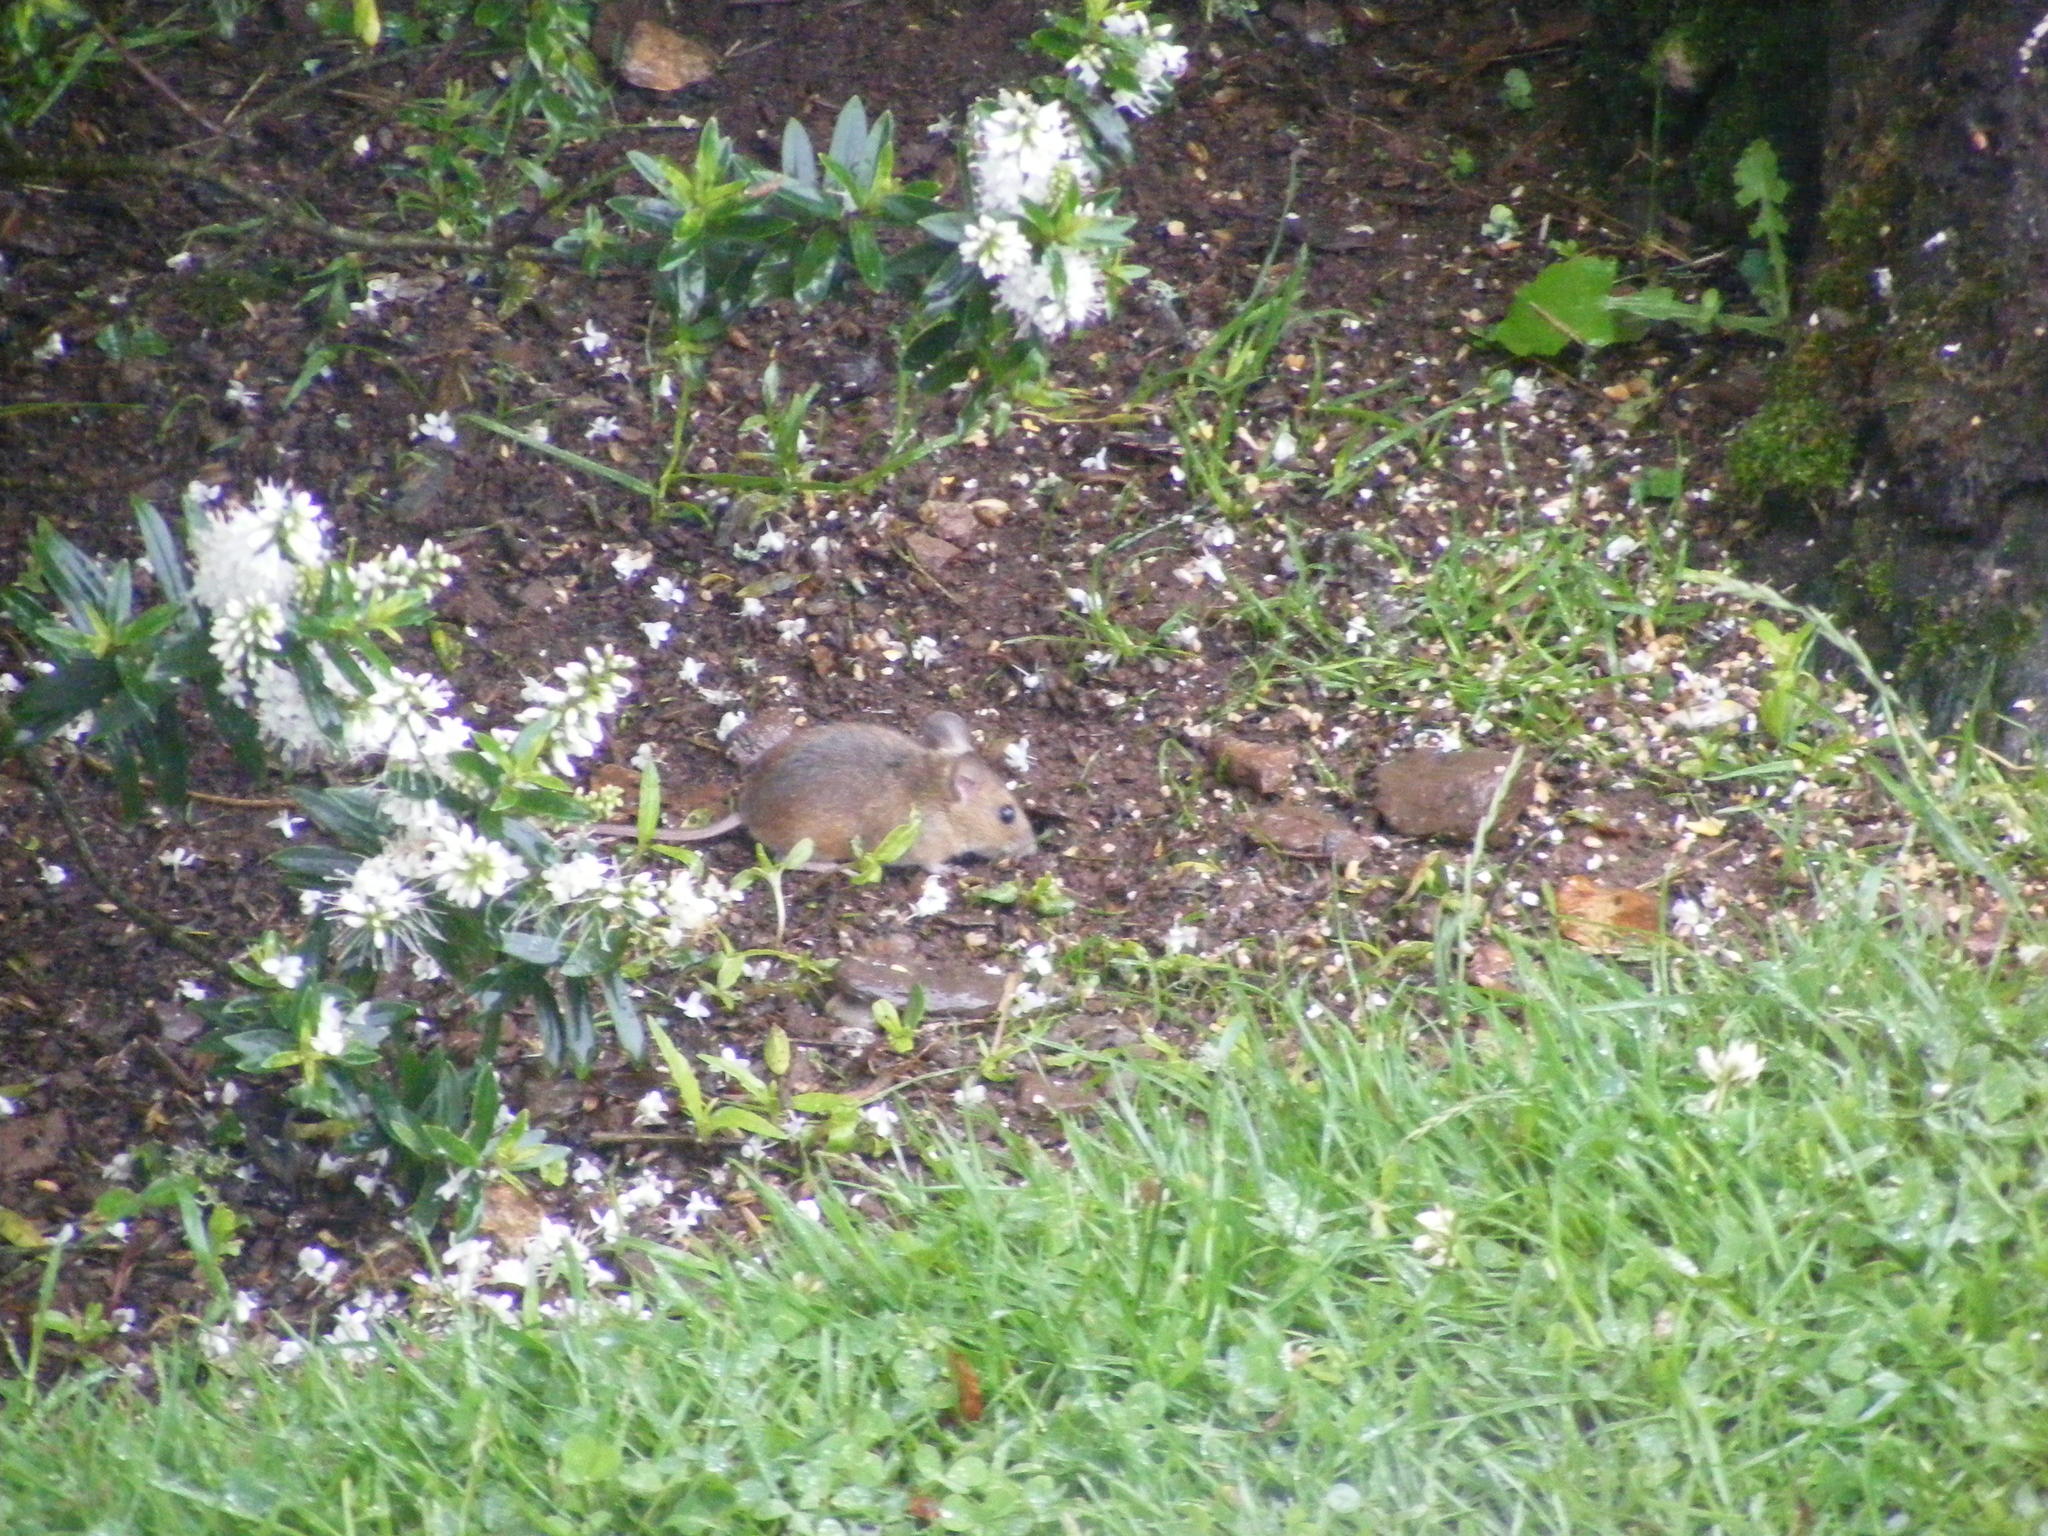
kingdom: Animalia
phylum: Chordata
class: Mammalia
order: Rodentia
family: Muridae
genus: Apodemus
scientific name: Apodemus sylvaticus
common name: Wood mouse
